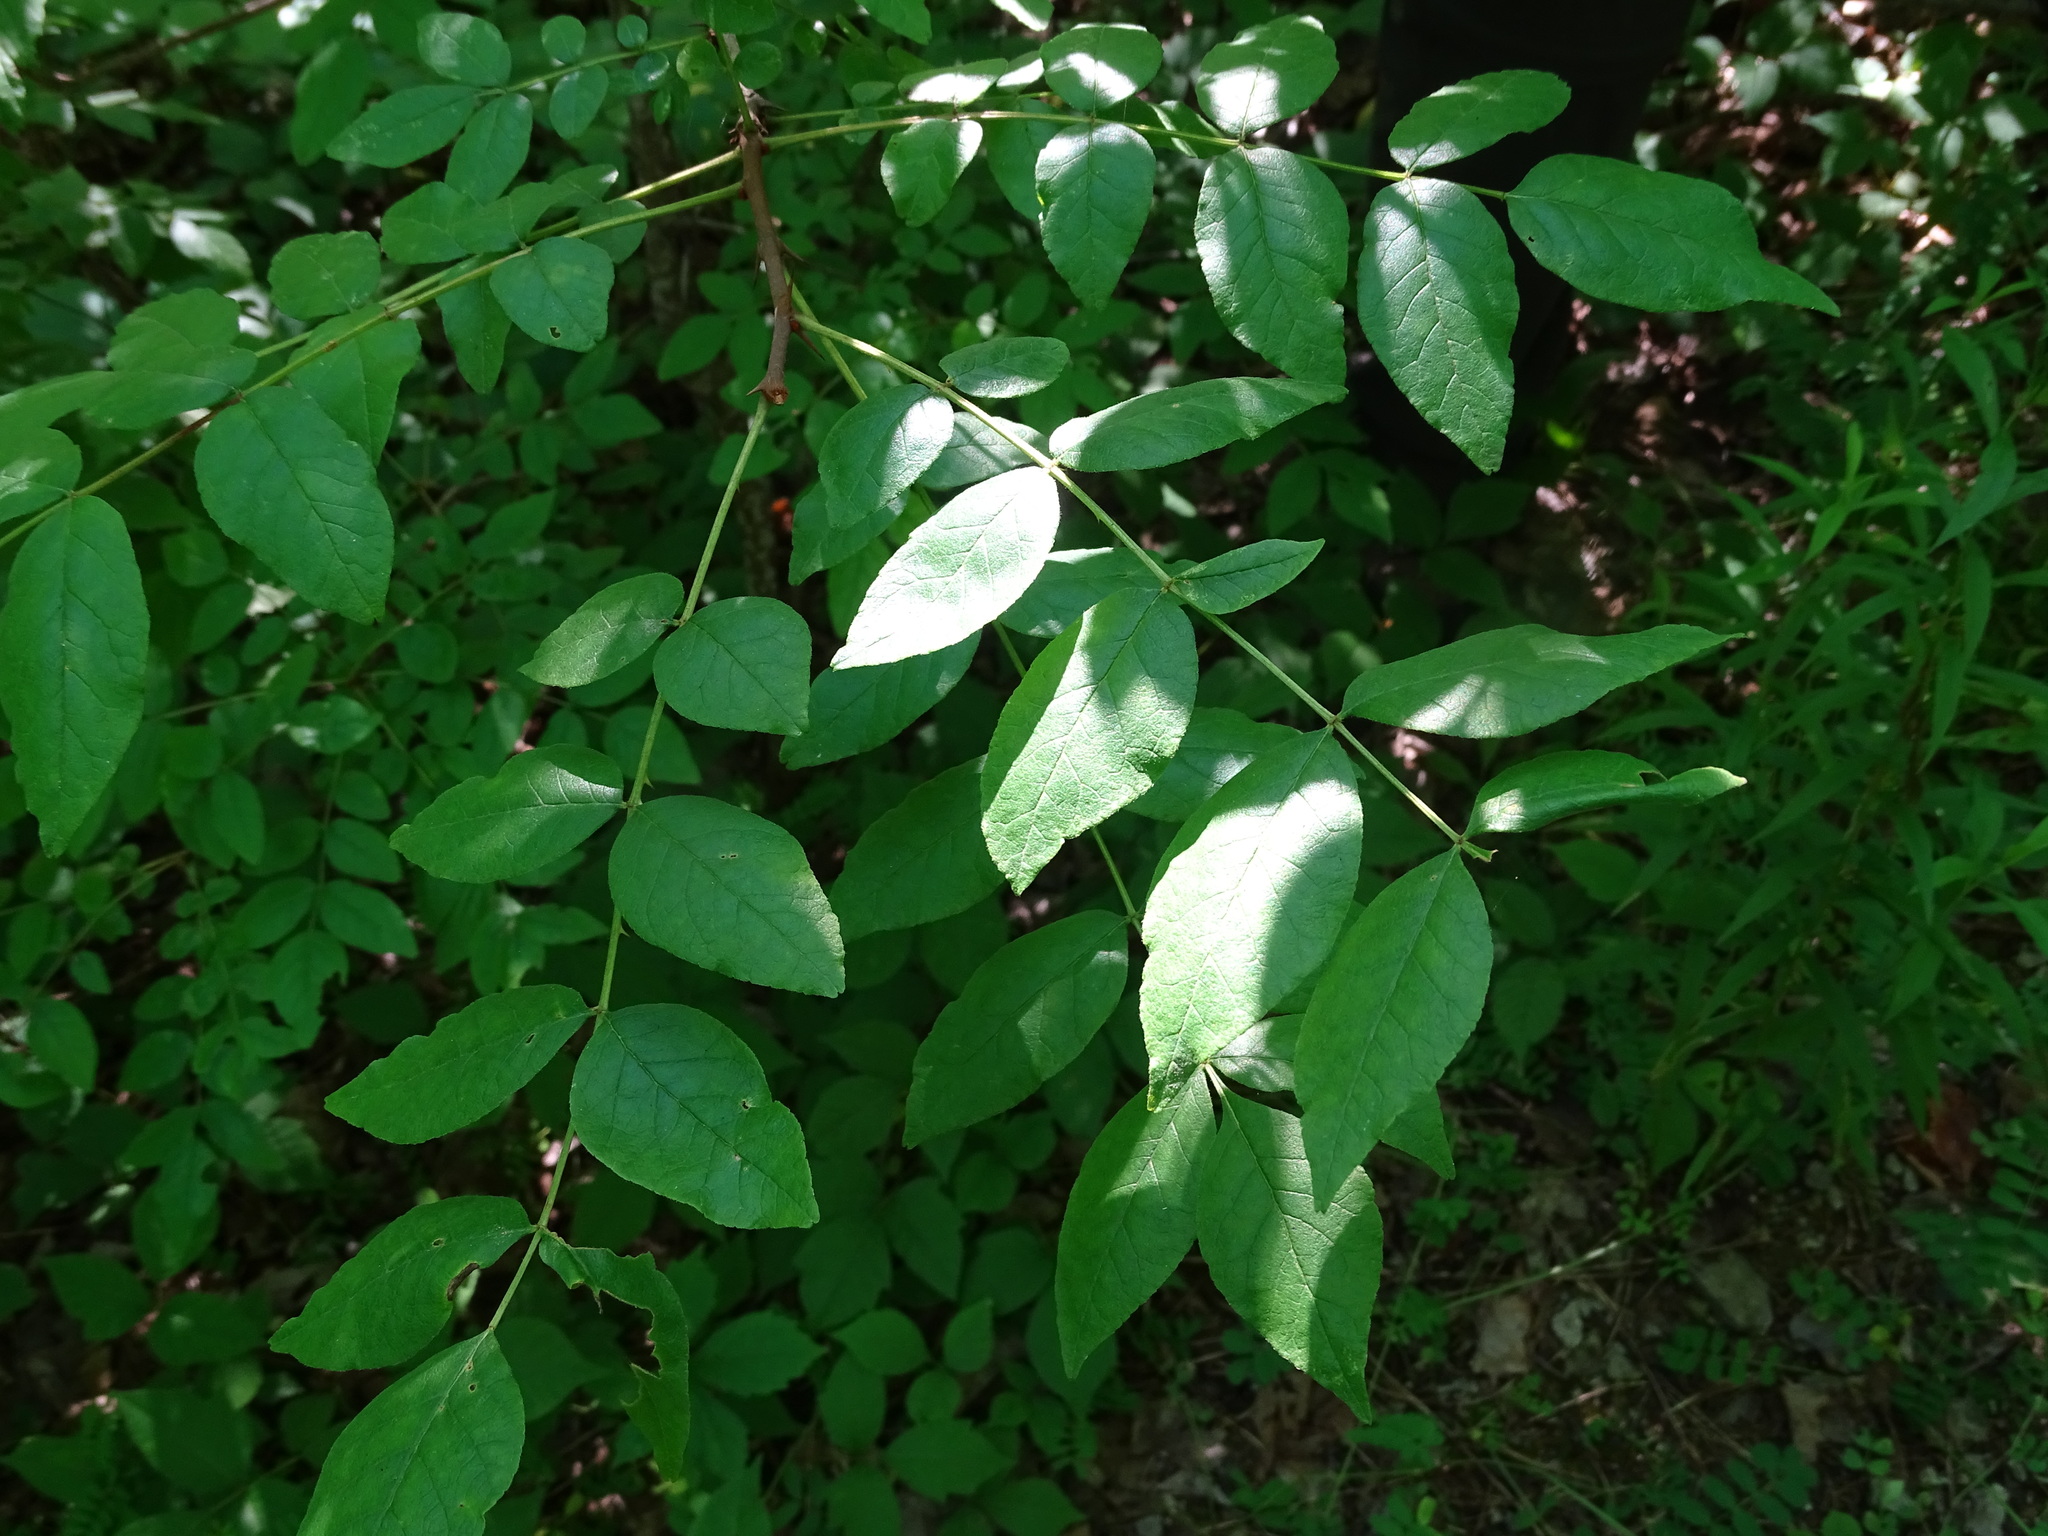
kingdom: Plantae
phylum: Tracheophyta
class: Magnoliopsida
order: Sapindales
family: Rutaceae
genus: Zanthoxylum
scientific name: Zanthoxylum americanum
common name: Northern prickly-ash
